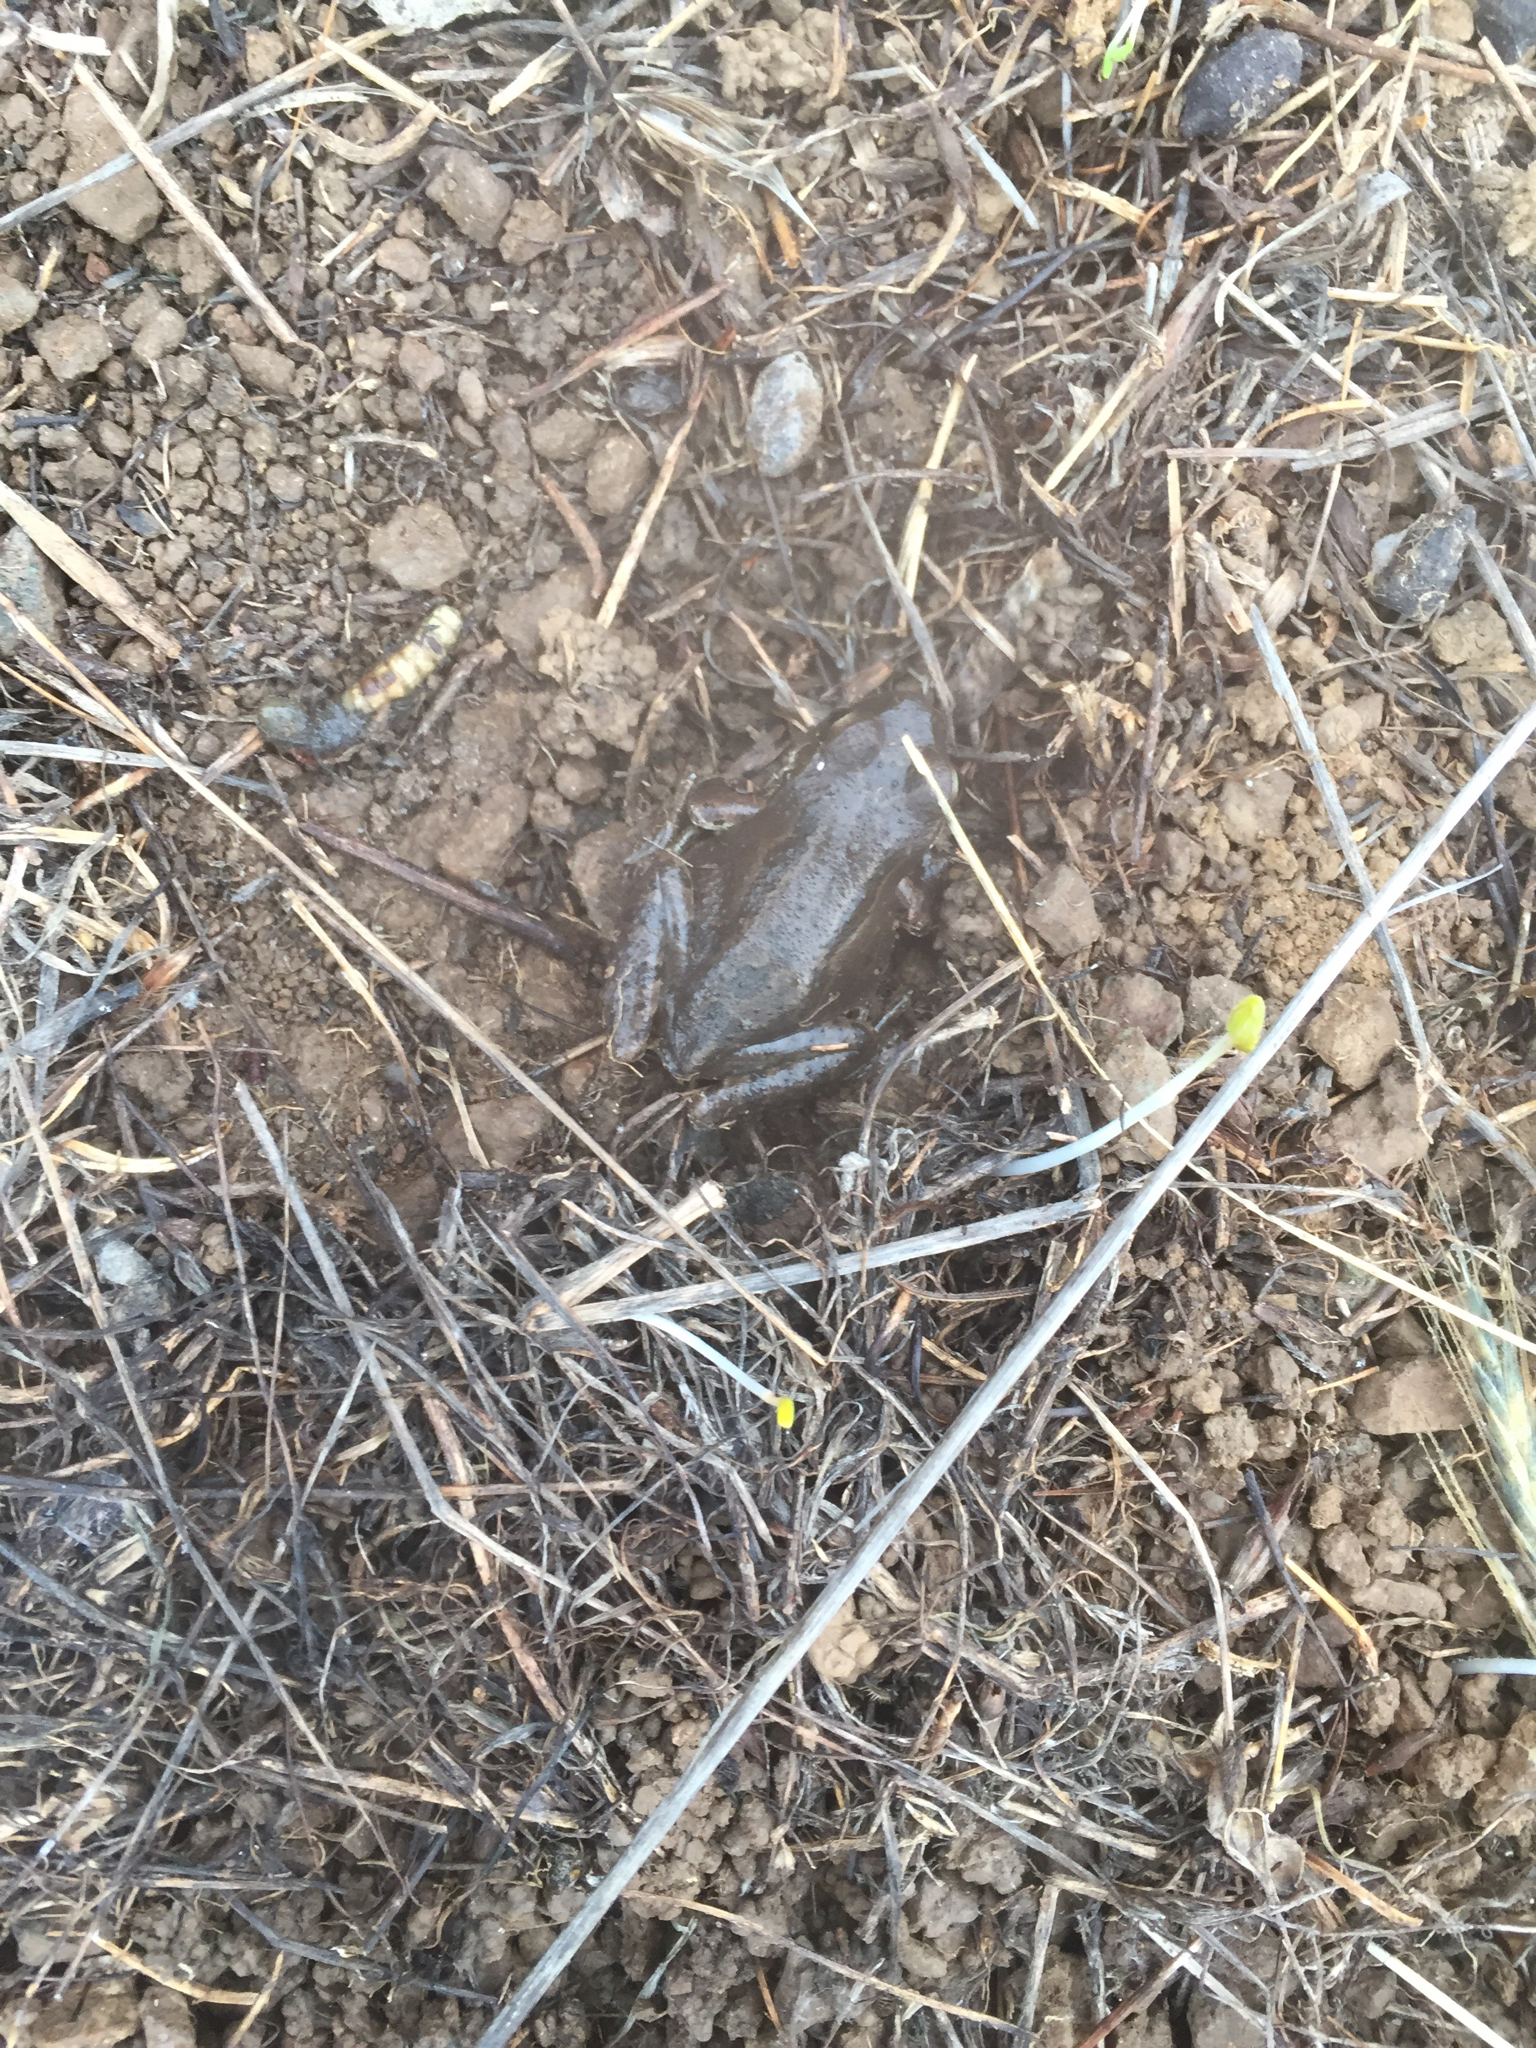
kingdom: Animalia
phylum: Chordata
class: Amphibia
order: Anura
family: Hylidae
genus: Pseudacris
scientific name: Pseudacris regilla
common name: Pacific chorus frog
